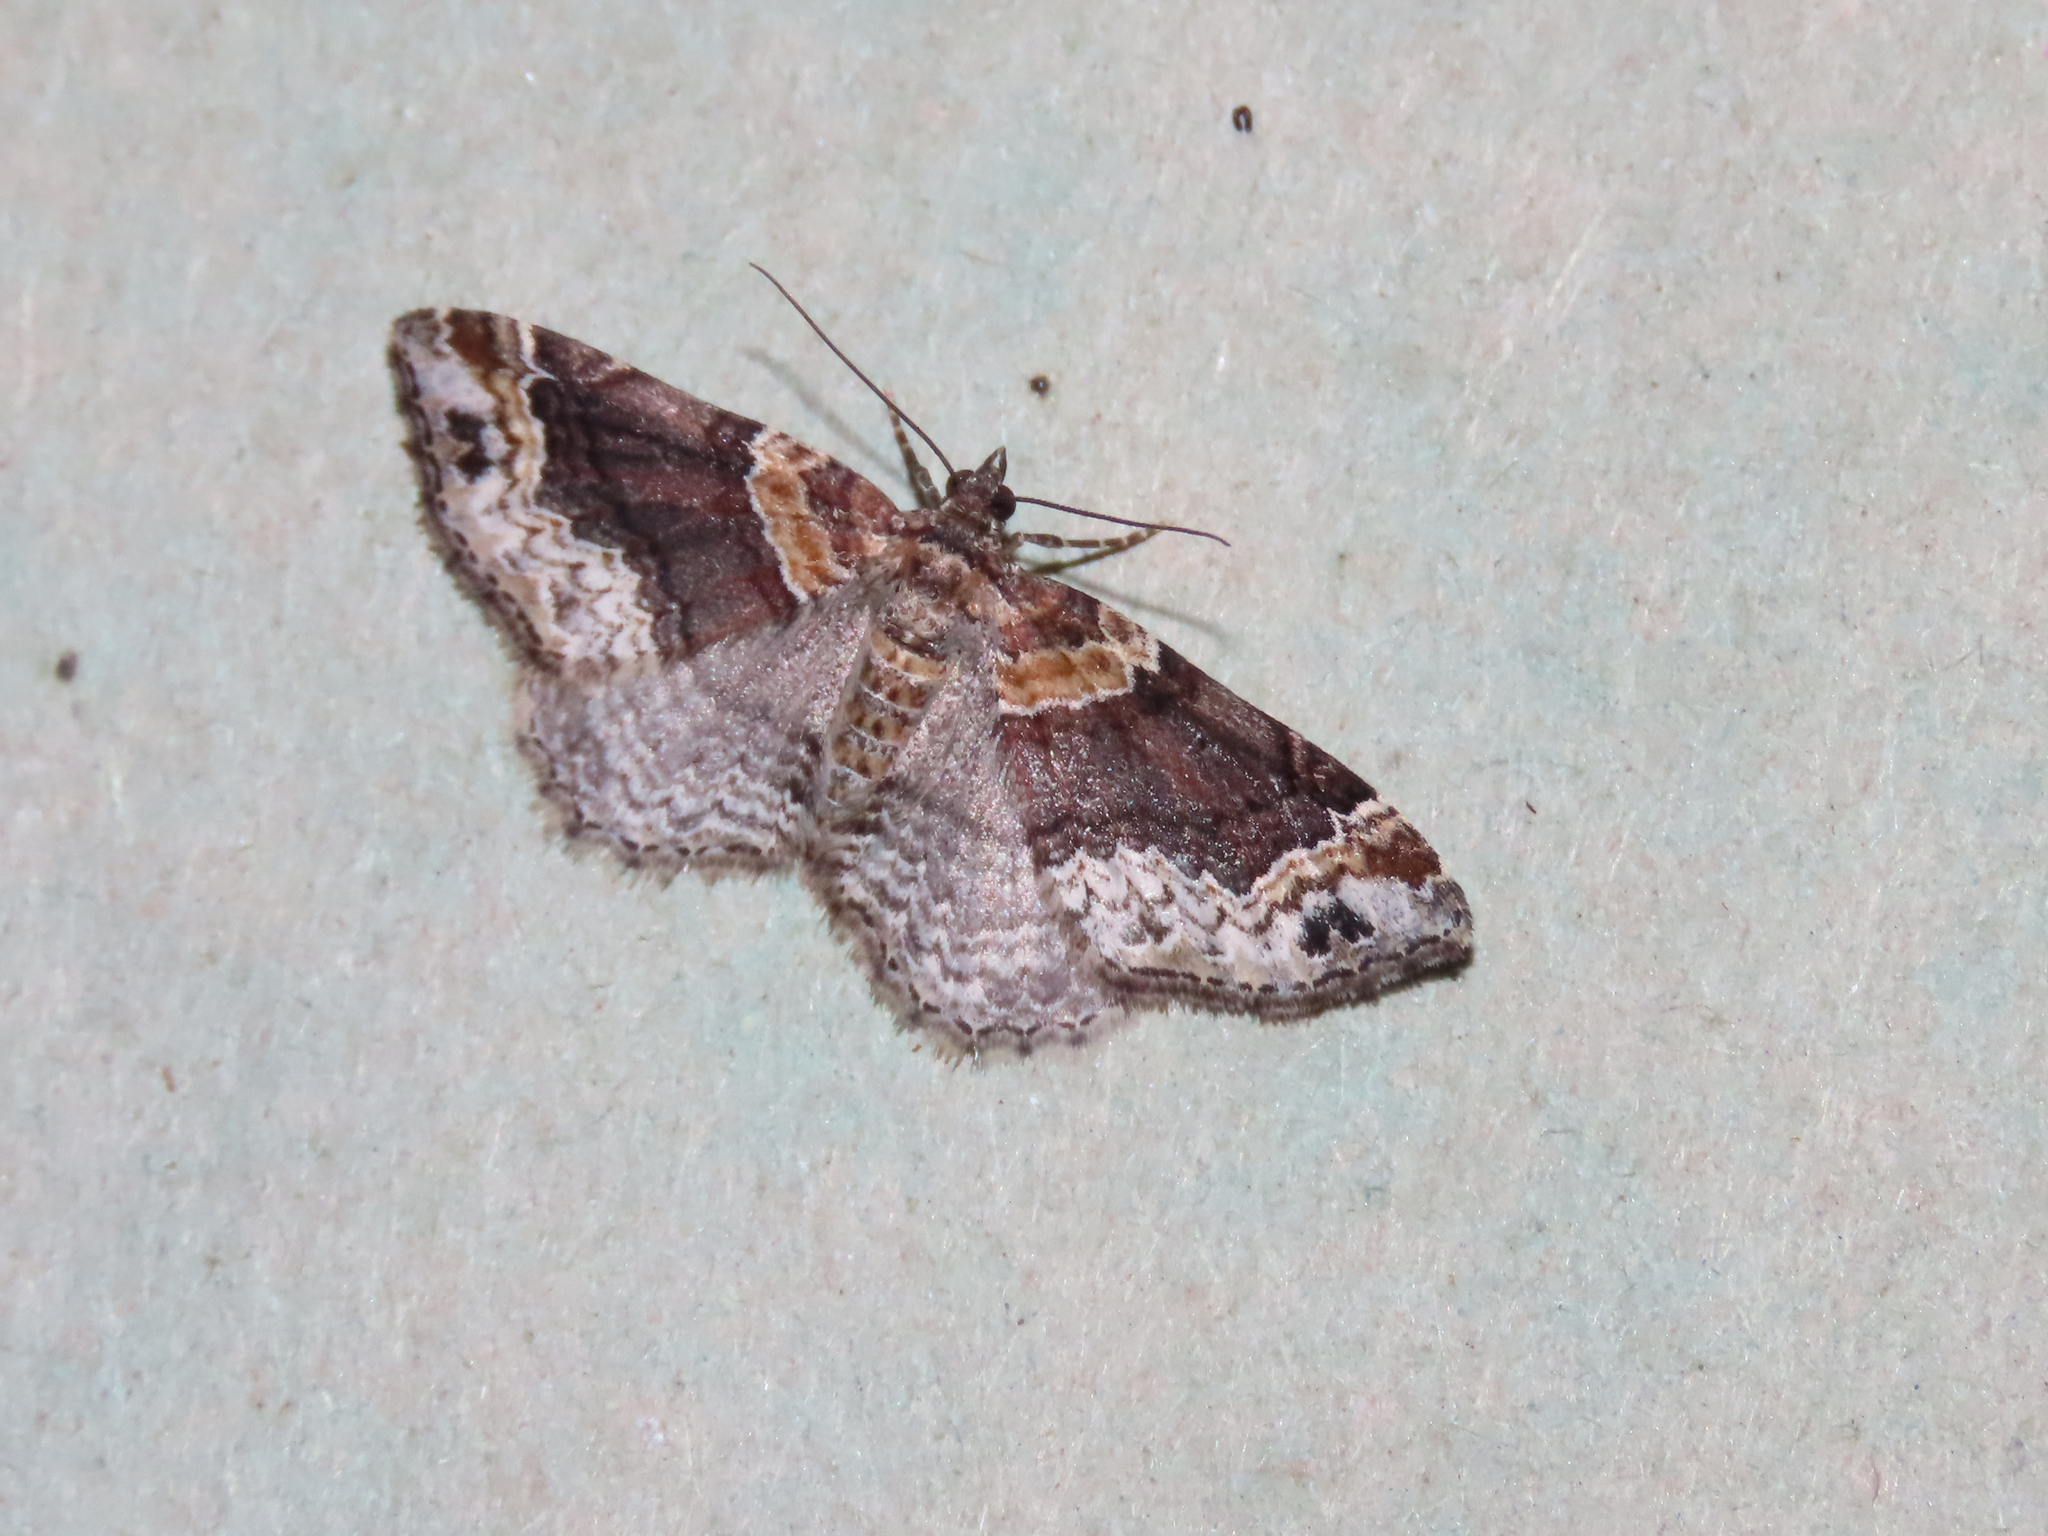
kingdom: Animalia
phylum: Arthropoda
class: Insecta
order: Lepidoptera
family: Geometridae
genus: Xanthorhoe
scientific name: Xanthorhoe ferrugata
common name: Dark-barred twin-spot carpet
